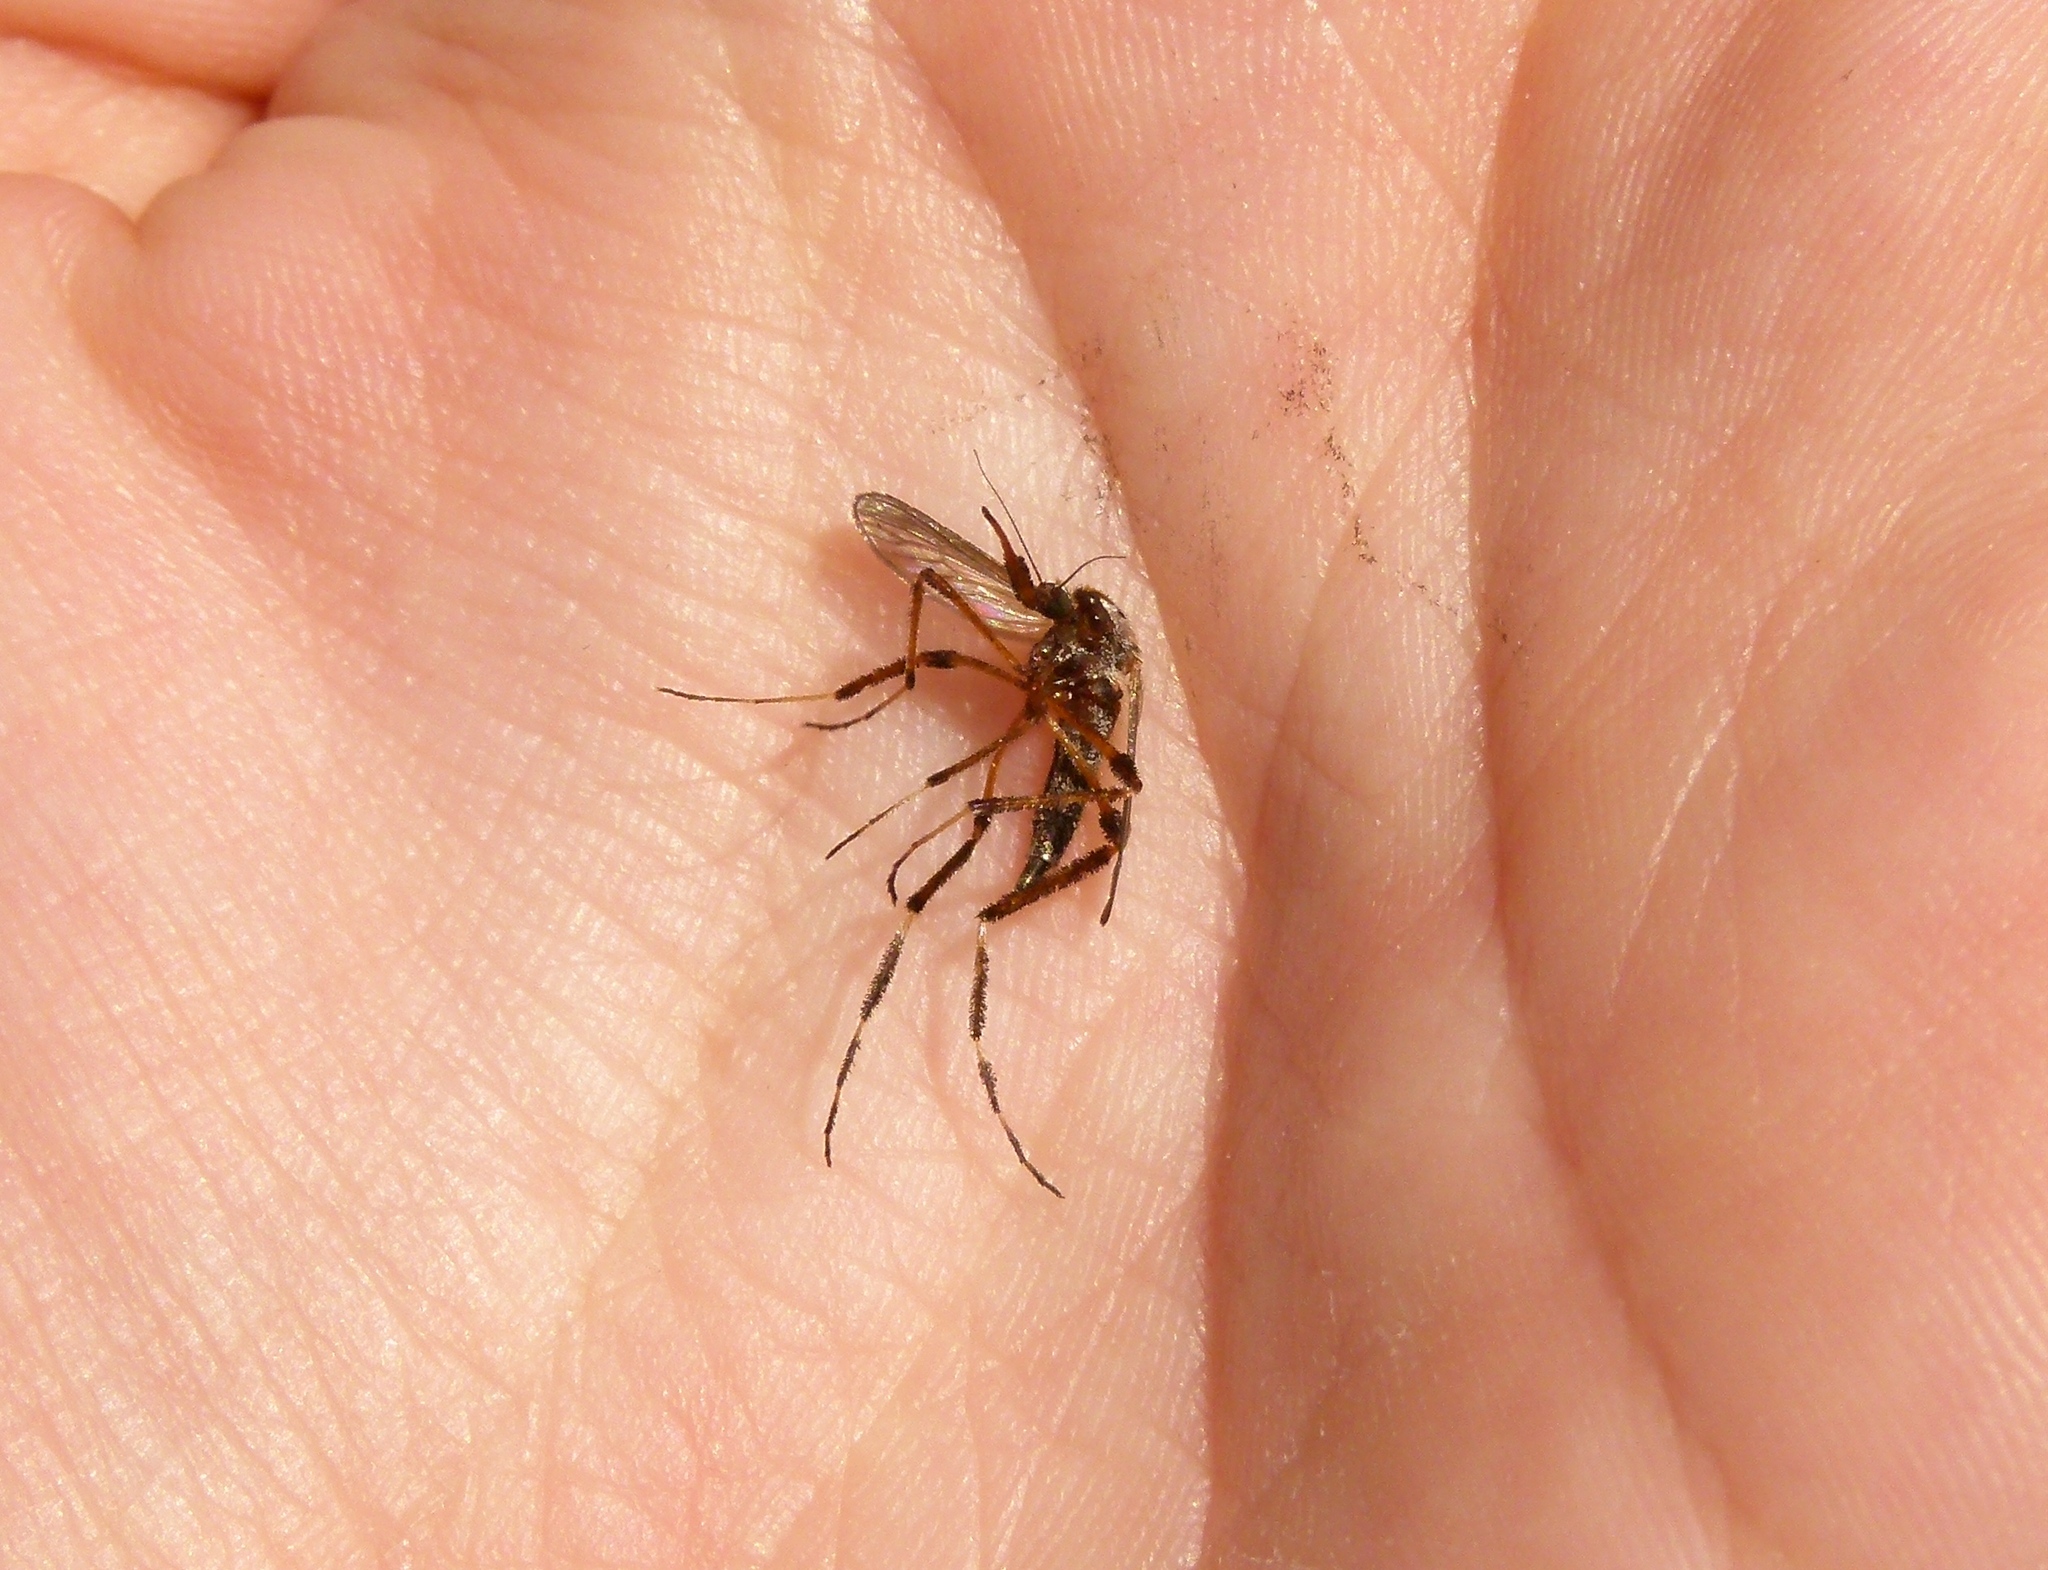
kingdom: Animalia
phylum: Arthropoda
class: Insecta
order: Diptera
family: Culicidae
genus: Psorophora
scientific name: Psorophora ciliata
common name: Gallinipper
